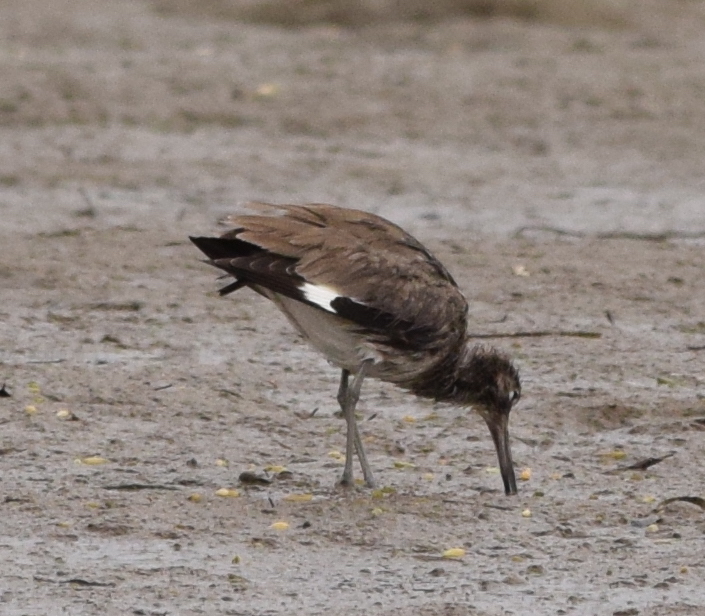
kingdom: Animalia
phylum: Chordata
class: Aves
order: Charadriiformes
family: Scolopacidae
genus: Tringa
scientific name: Tringa semipalmata
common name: Willet
